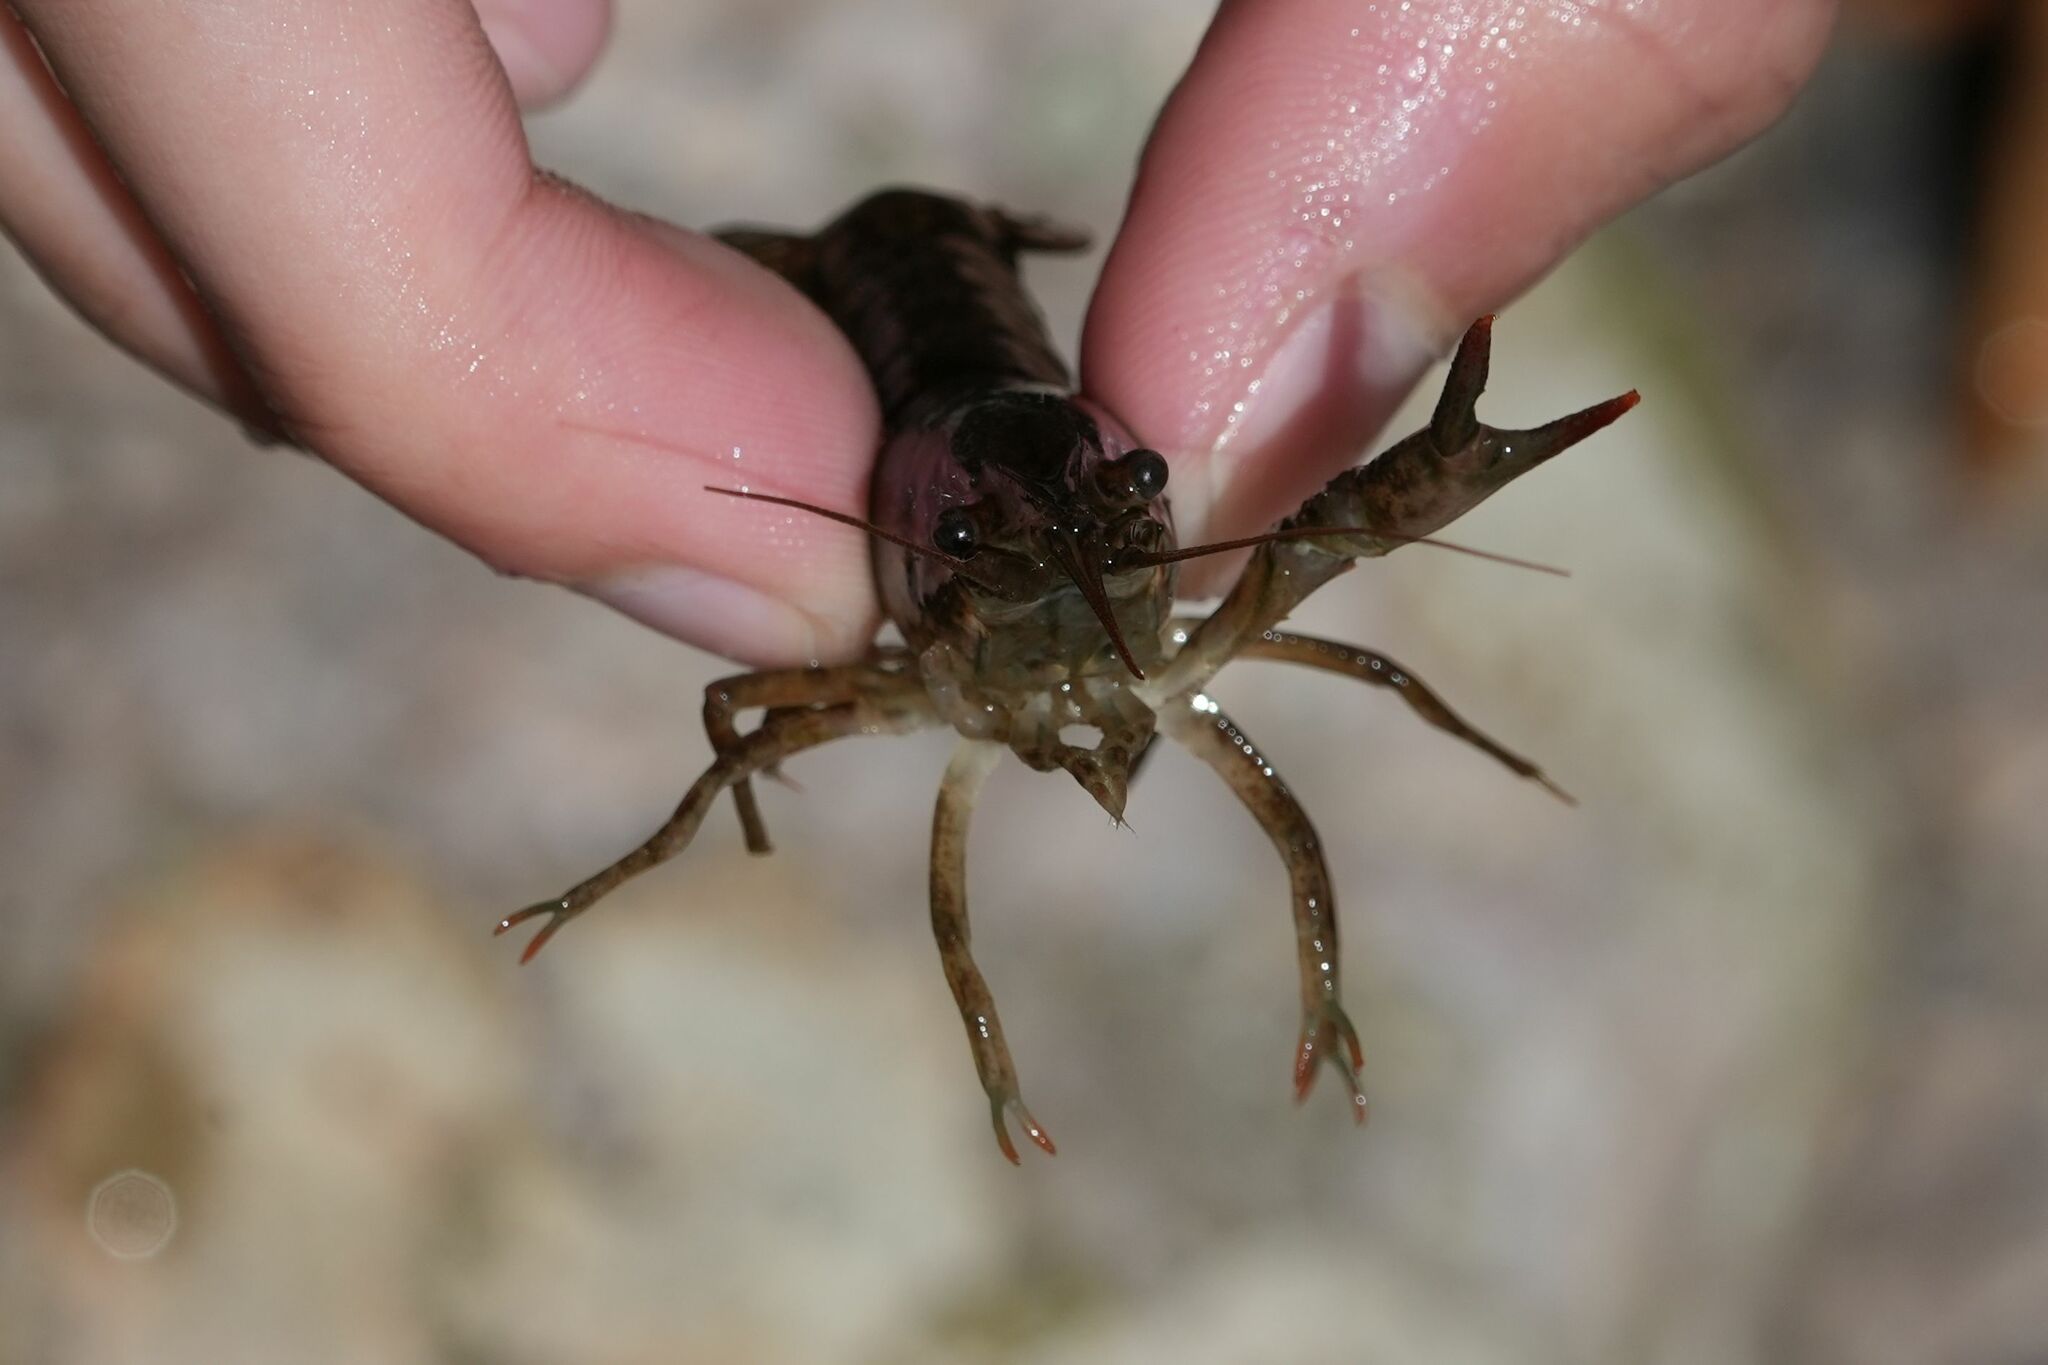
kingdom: Animalia
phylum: Arthropoda
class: Malacostraca
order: Decapoda
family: Cambaridae
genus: Faxonius
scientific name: Faxonius immunis
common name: Calico crayfish
